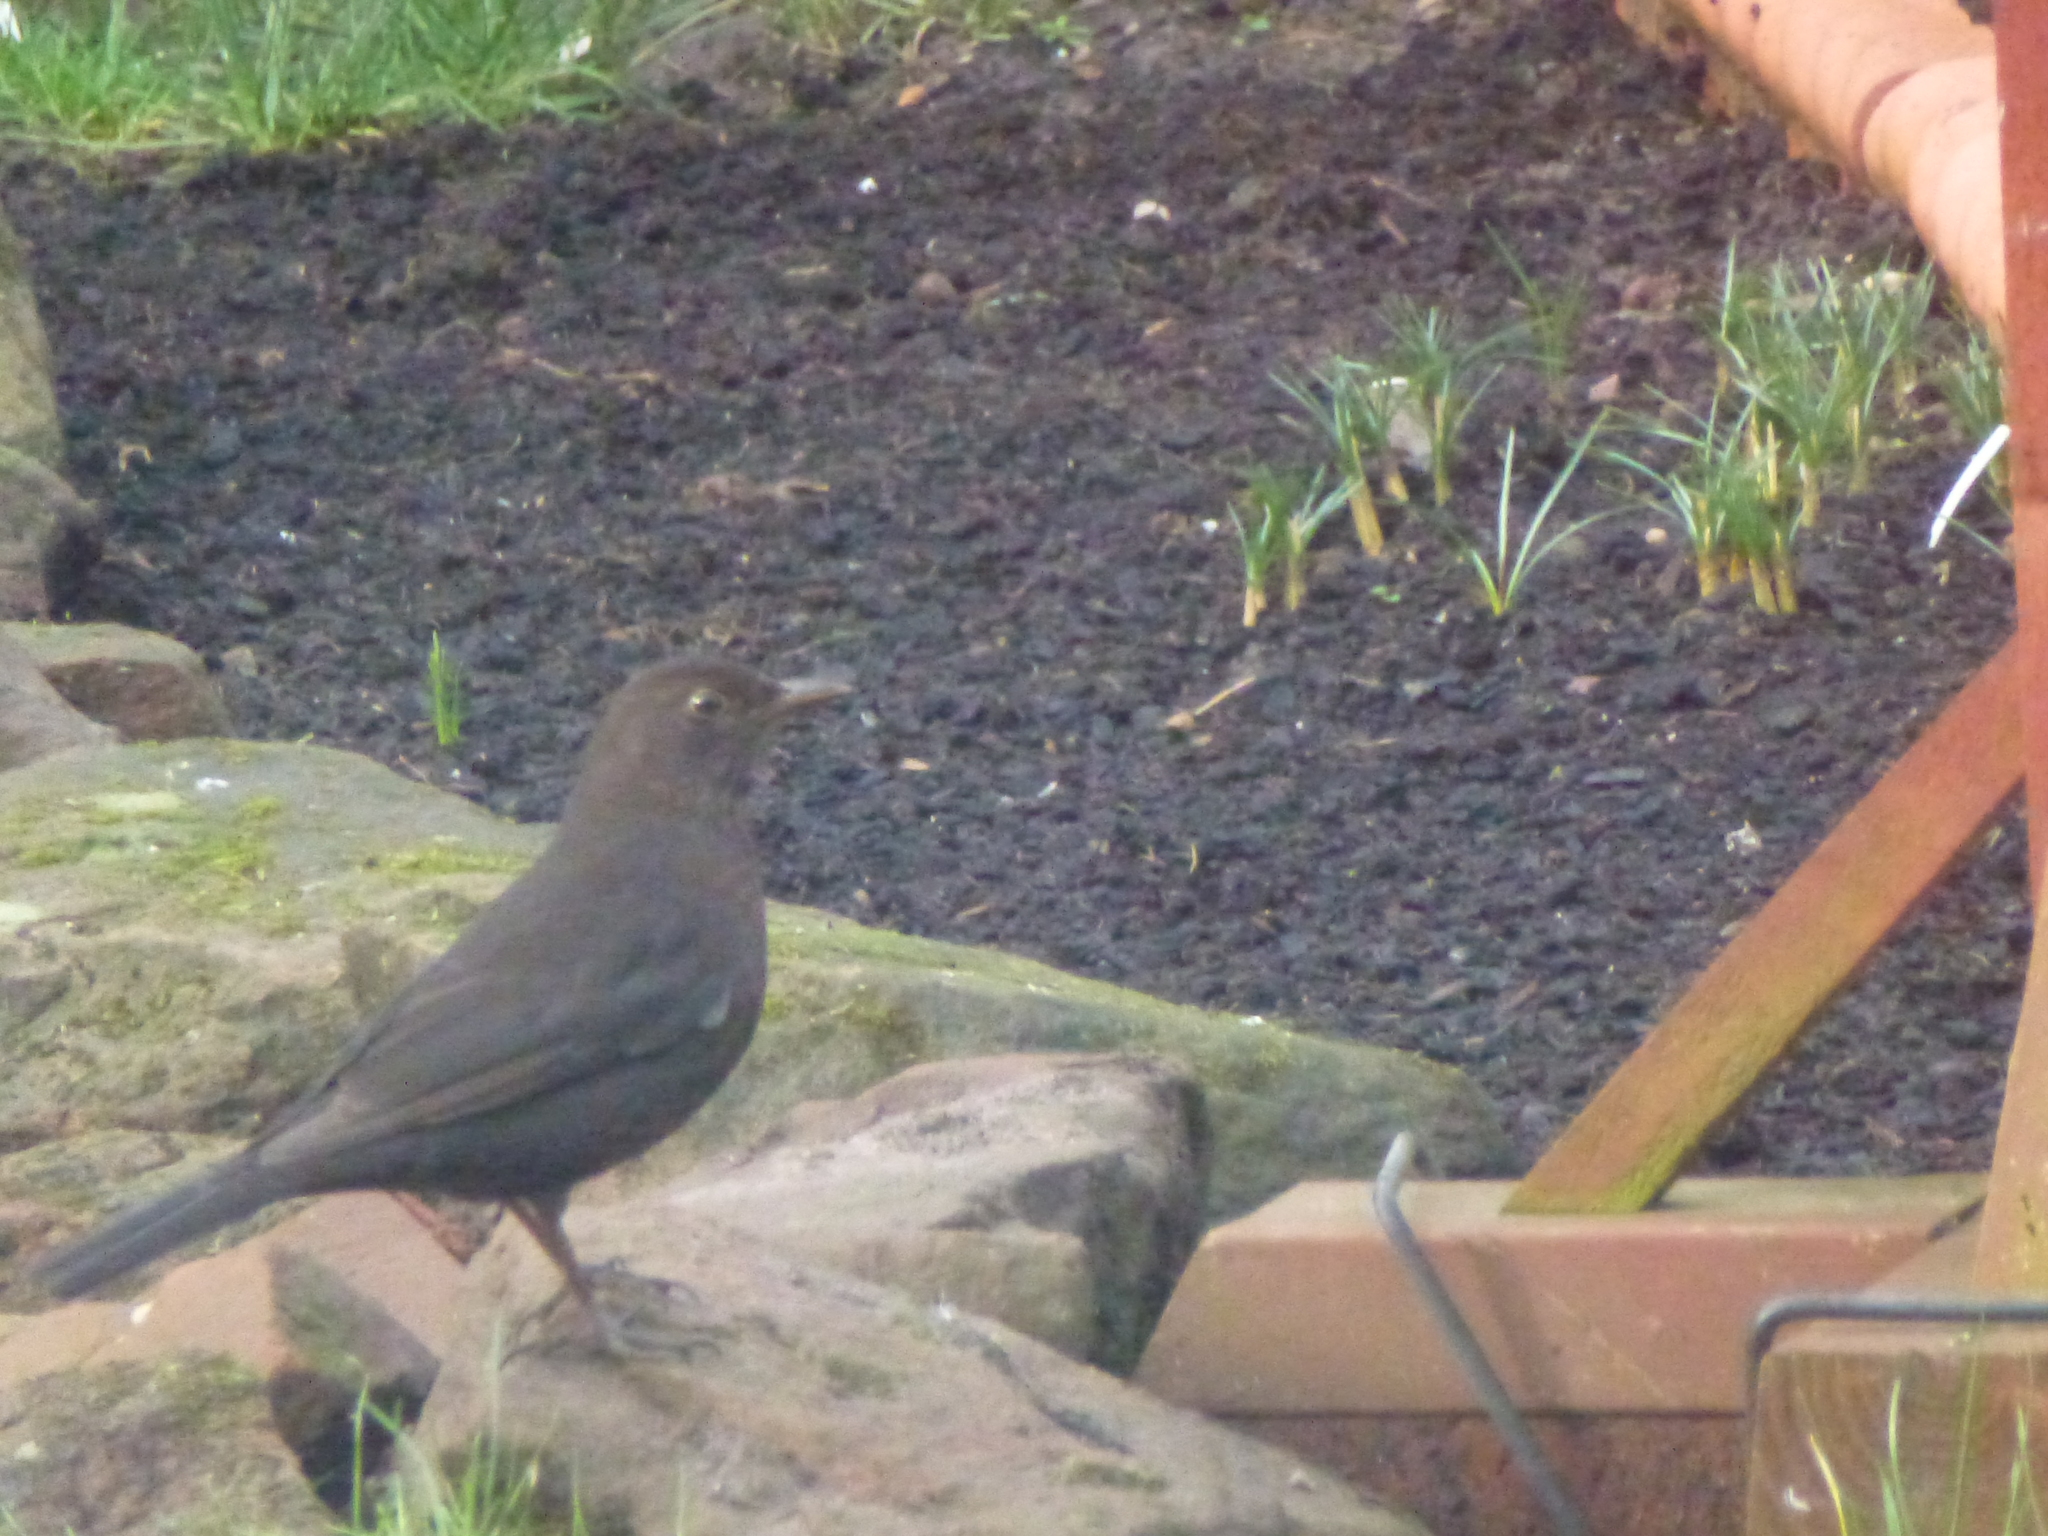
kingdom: Animalia
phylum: Chordata
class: Aves
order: Passeriformes
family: Turdidae
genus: Turdus
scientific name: Turdus merula
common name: Common blackbird
